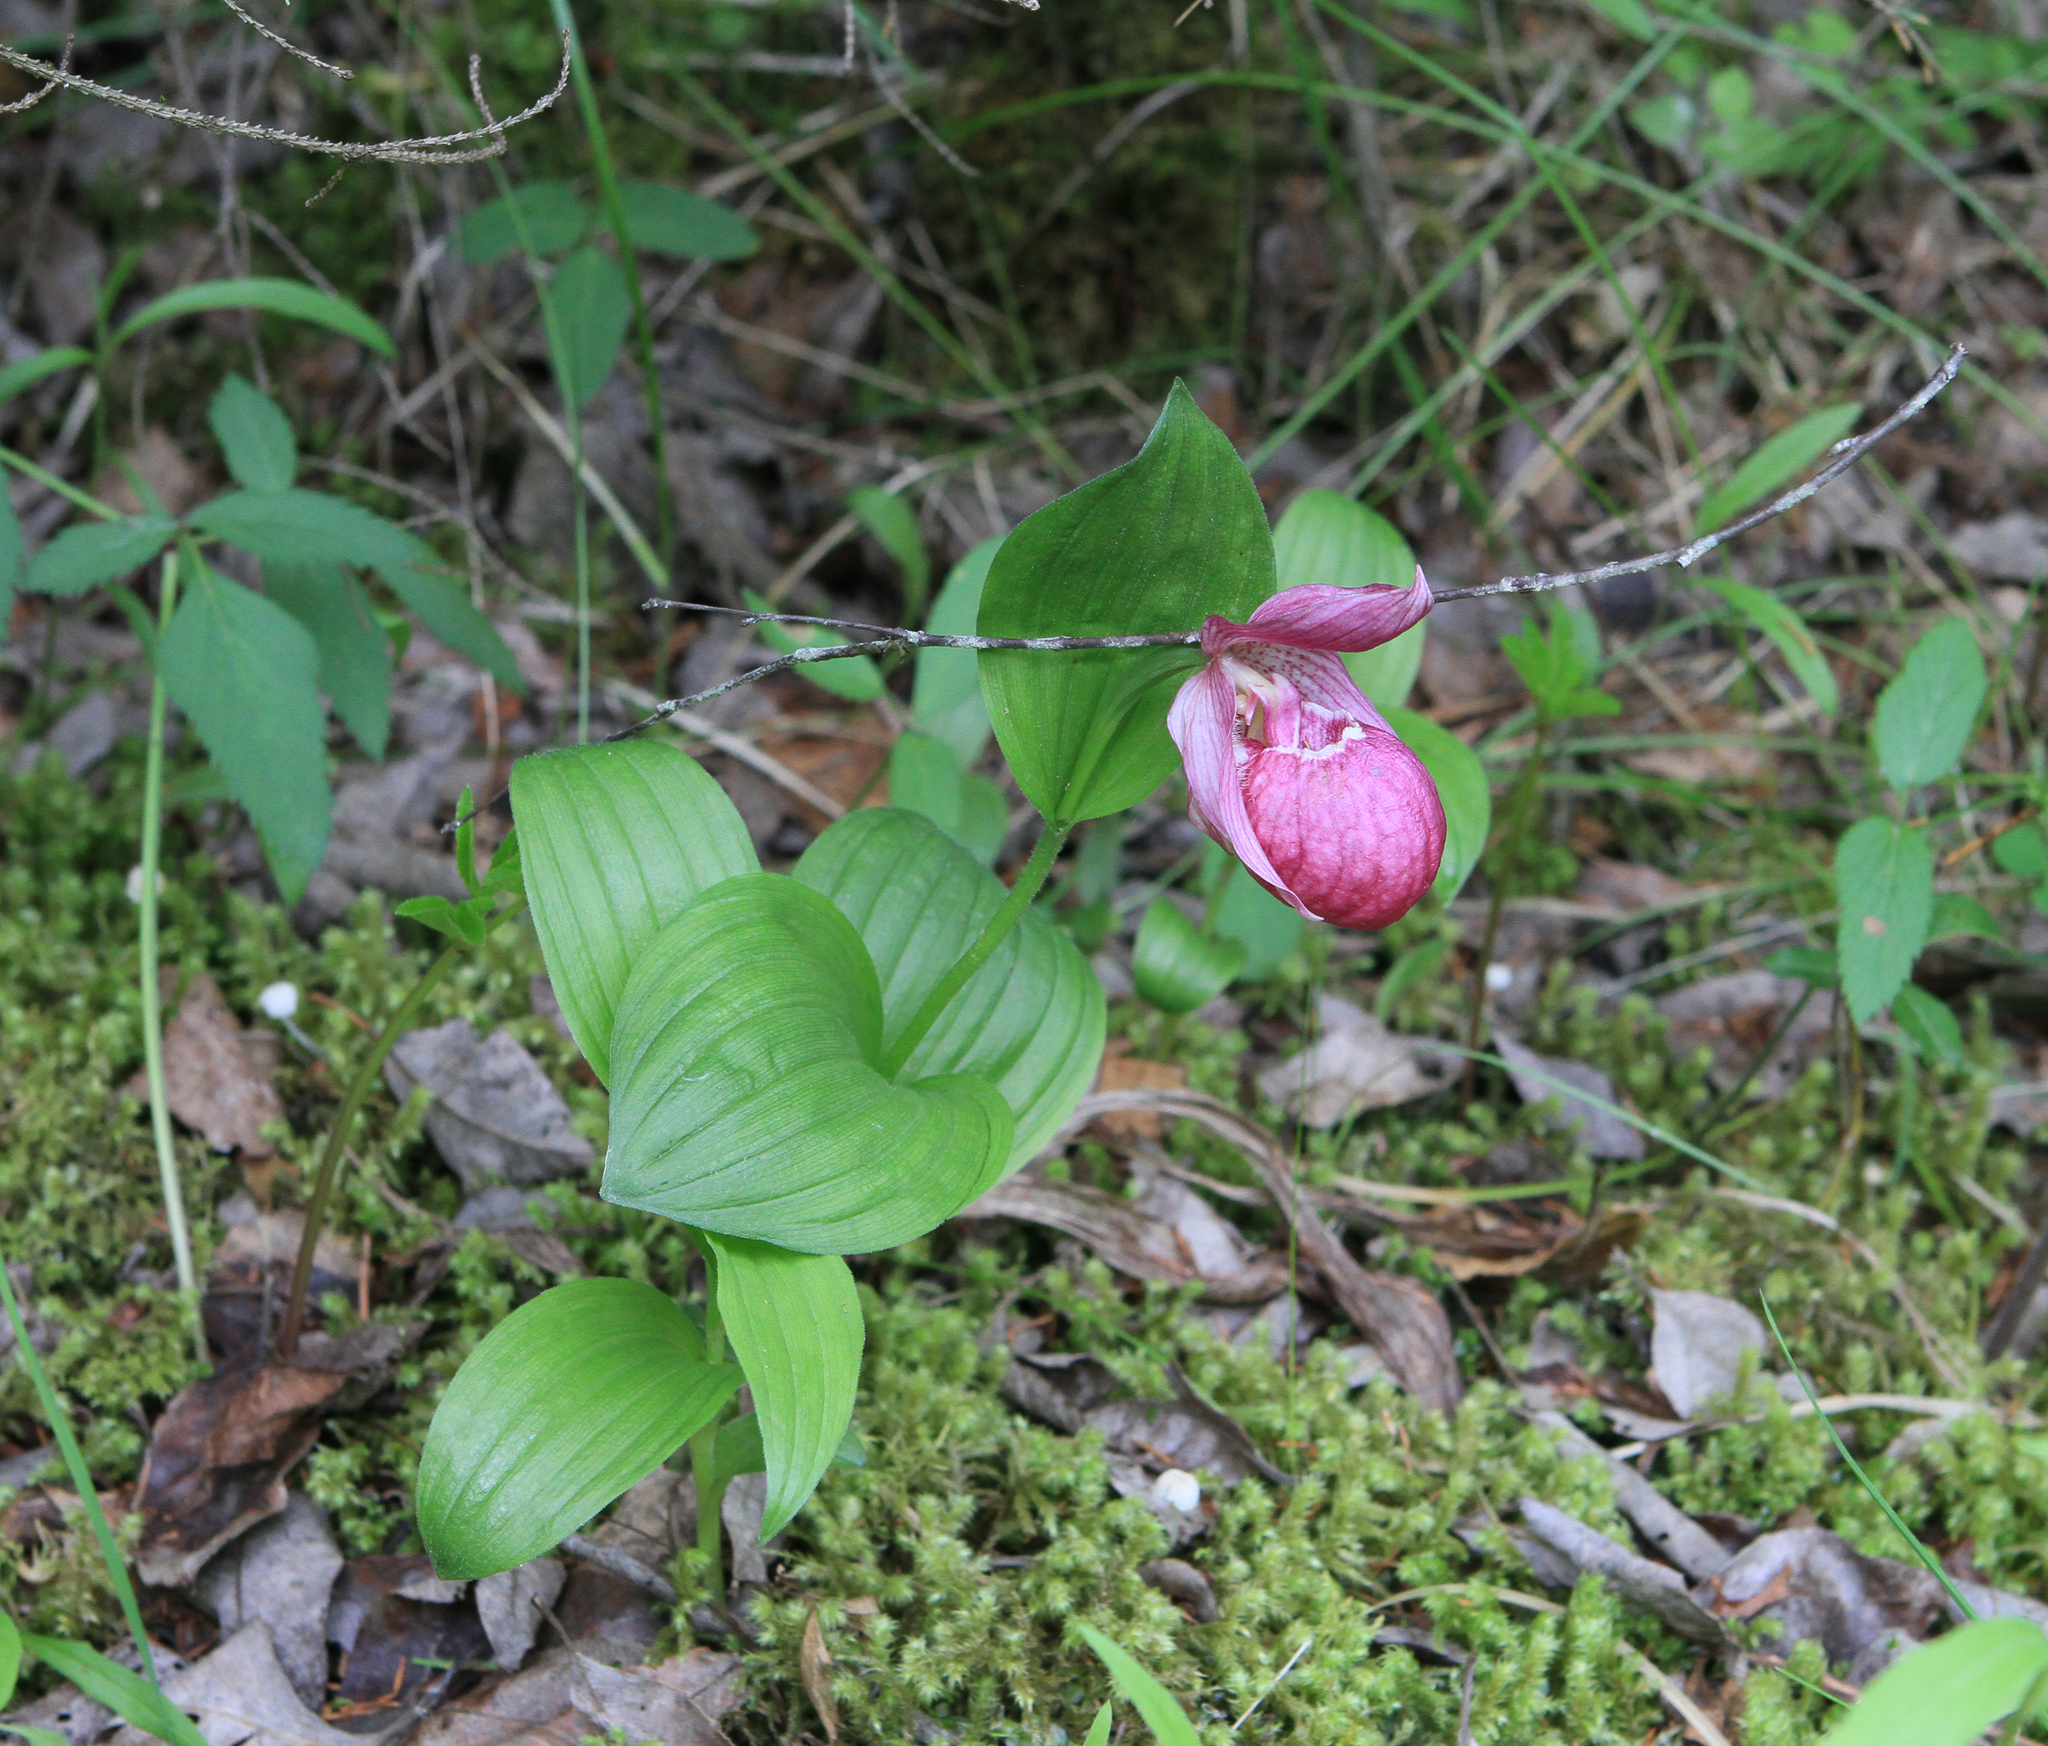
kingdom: Plantae
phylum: Tracheophyta
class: Liliopsida
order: Asparagales
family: Orchidaceae
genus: Cypripedium
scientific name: Cypripedium macranthos
